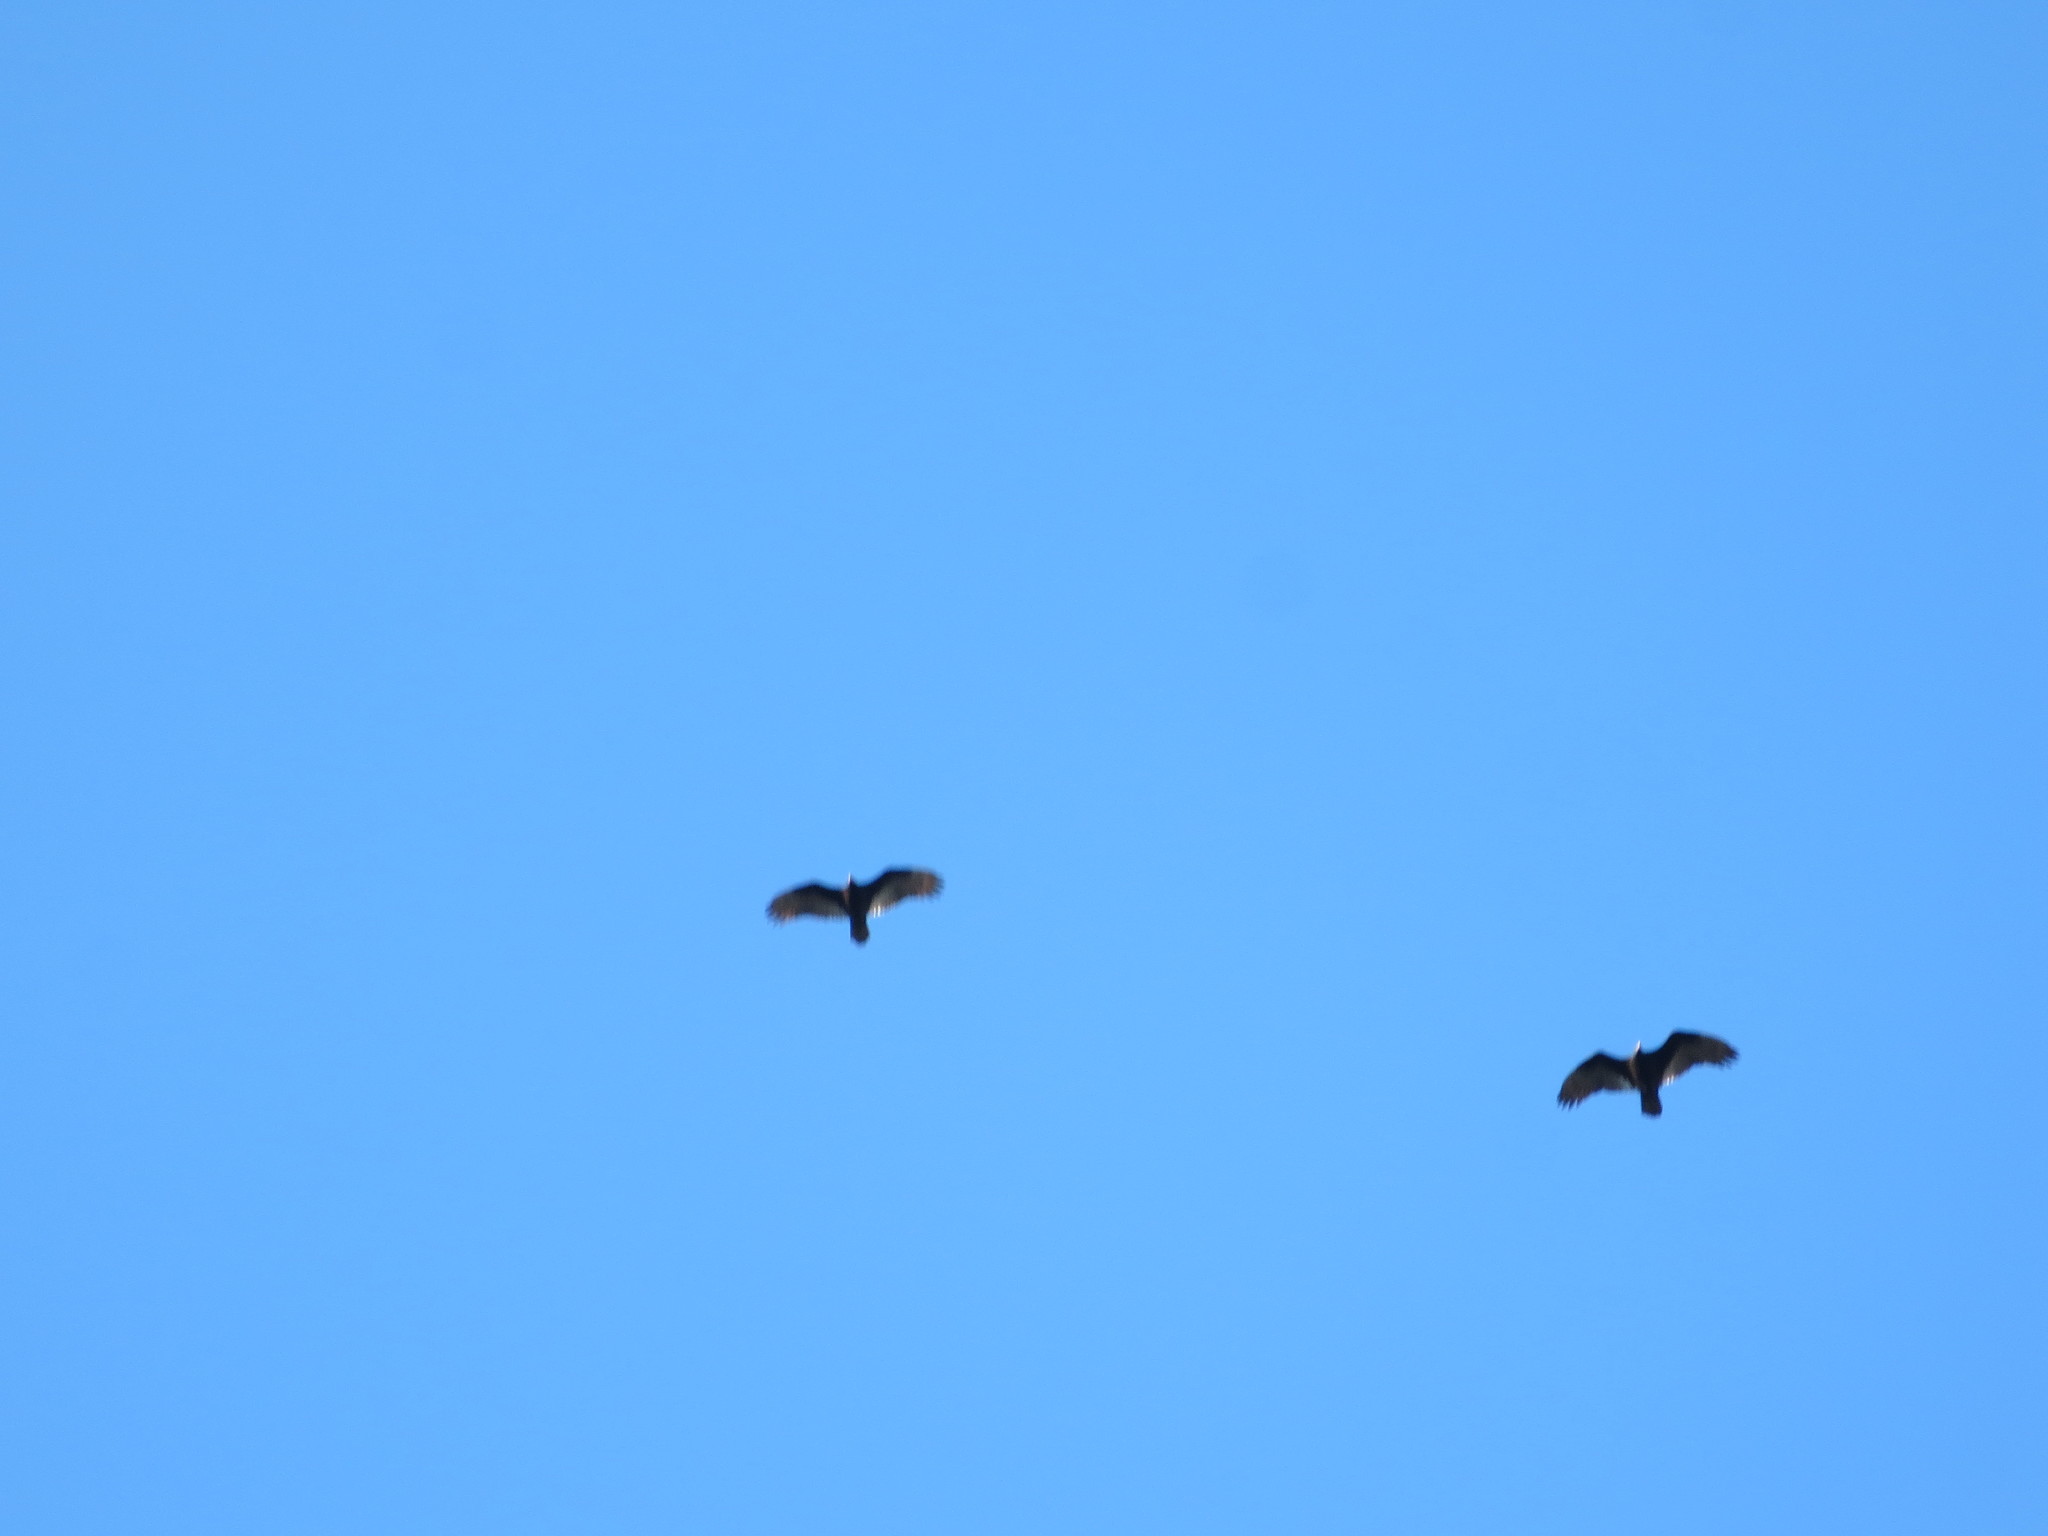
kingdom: Animalia
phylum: Chordata
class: Aves
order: Accipitriformes
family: Cathartidae
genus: Cathartes
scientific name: Cathartes aura
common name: Turkey vulture
